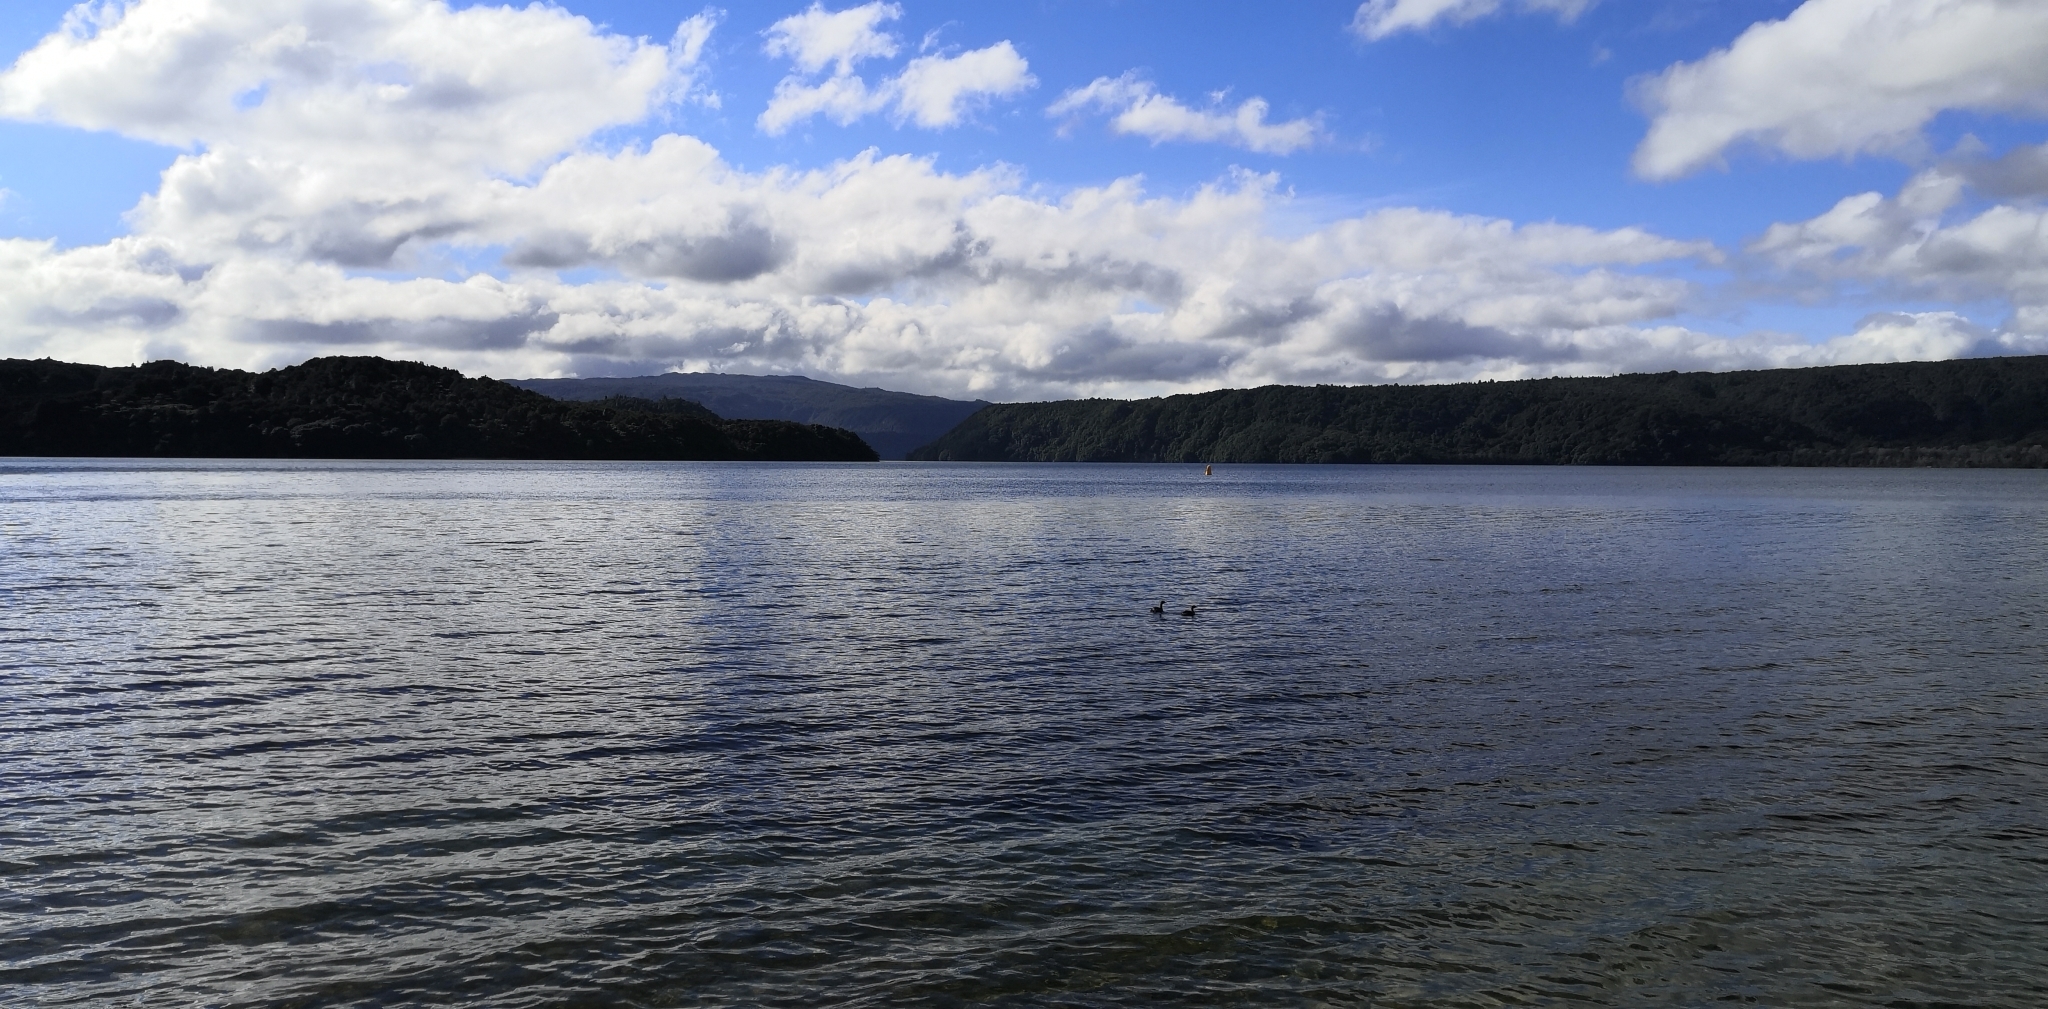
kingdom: Animalia
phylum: Chordata
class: Aves
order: Podicipediformes
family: Podicipedidae
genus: Poliocephalus
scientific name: Poliocephalus rufopectus
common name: New zealand grebe
